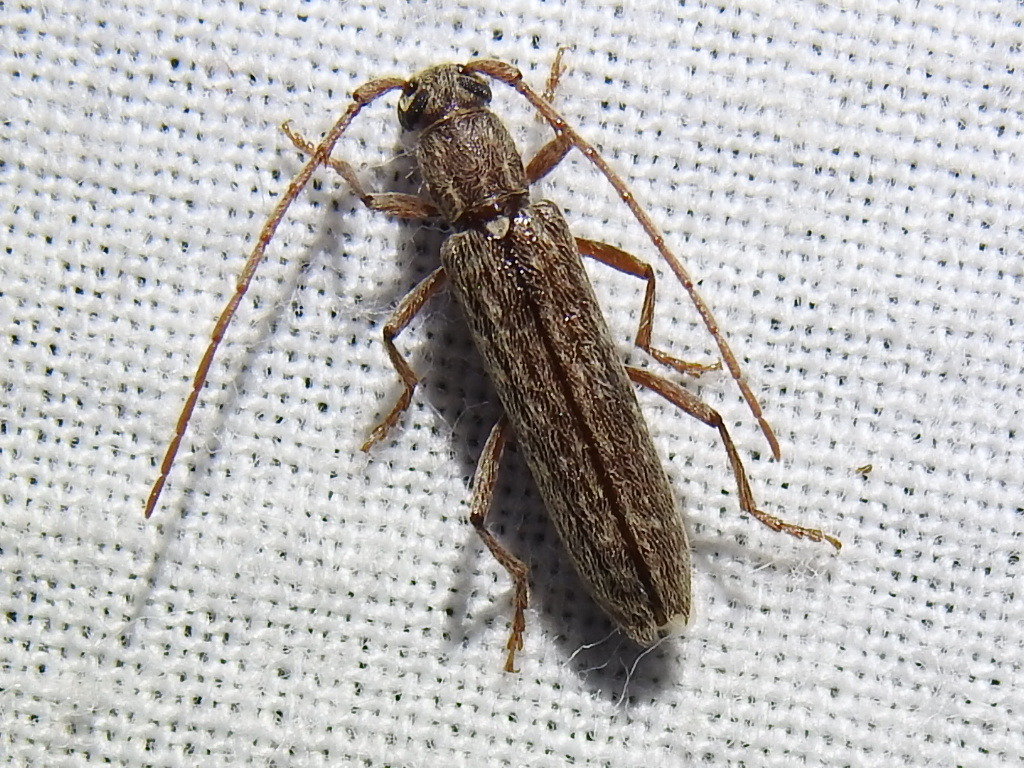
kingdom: Animalia
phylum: Arthropoda
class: Insecta
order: Coleoptera
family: Cerambycidae
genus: Anelaphus
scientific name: Anelaphus villosus
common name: Twig pruner
